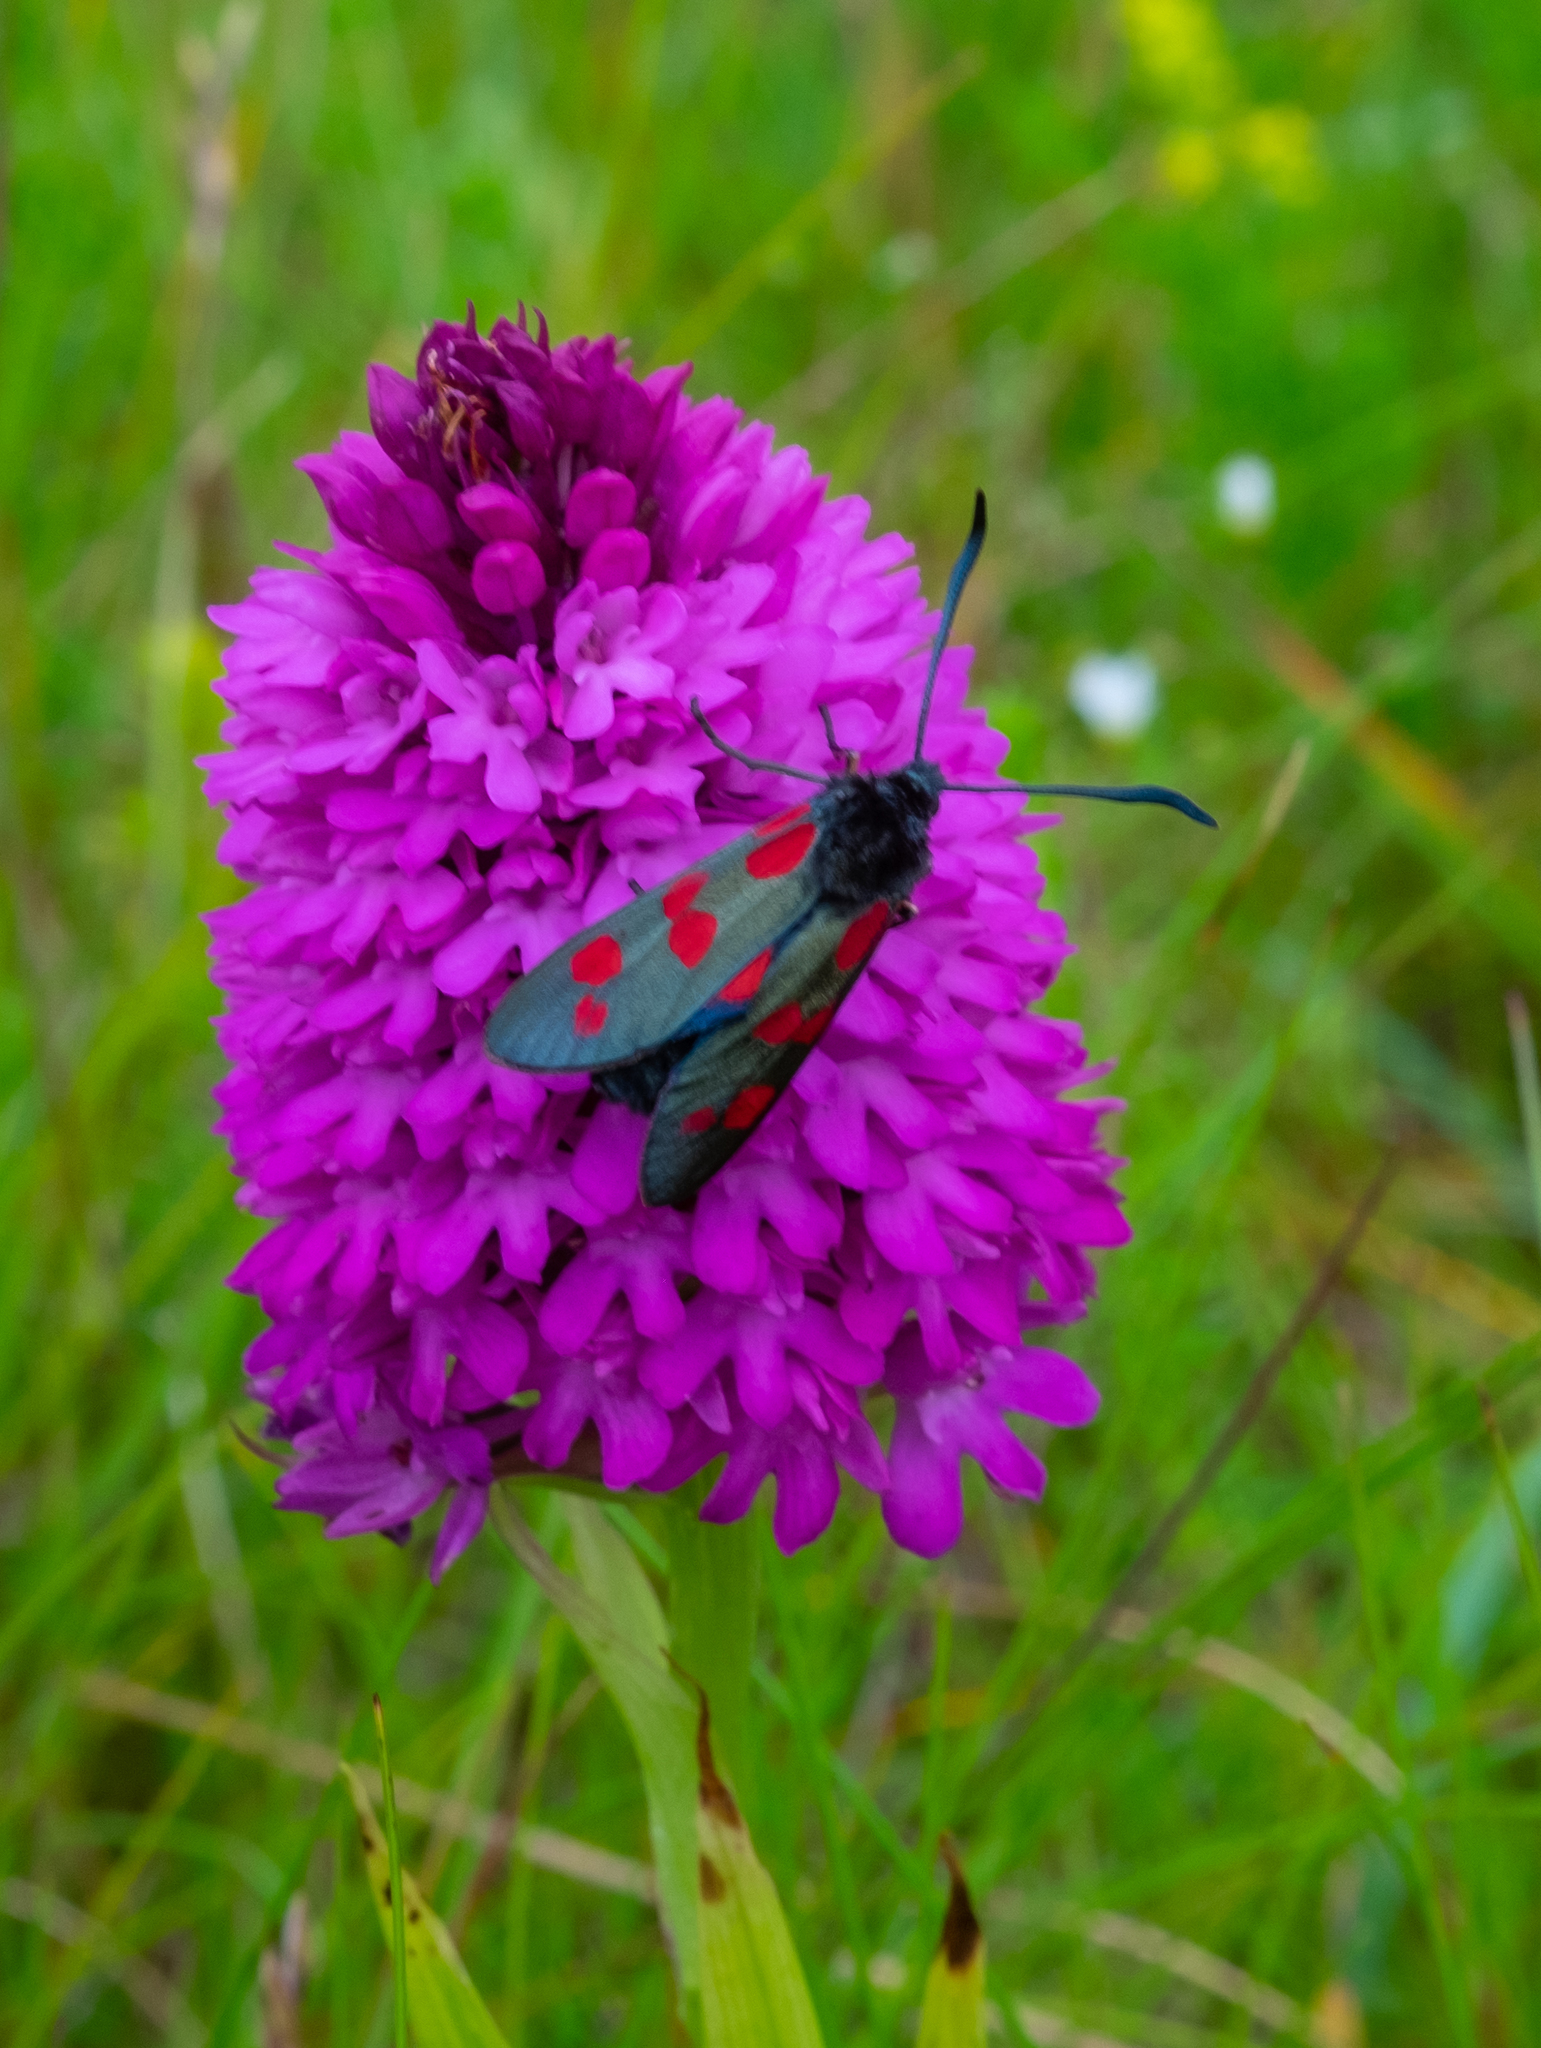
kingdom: Animalia
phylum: Arthropoda
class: Insecta
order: Lepidoptera
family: Zygaenidae
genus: Zygaena
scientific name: Zygaena filipendulae
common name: Six-spot burnet
